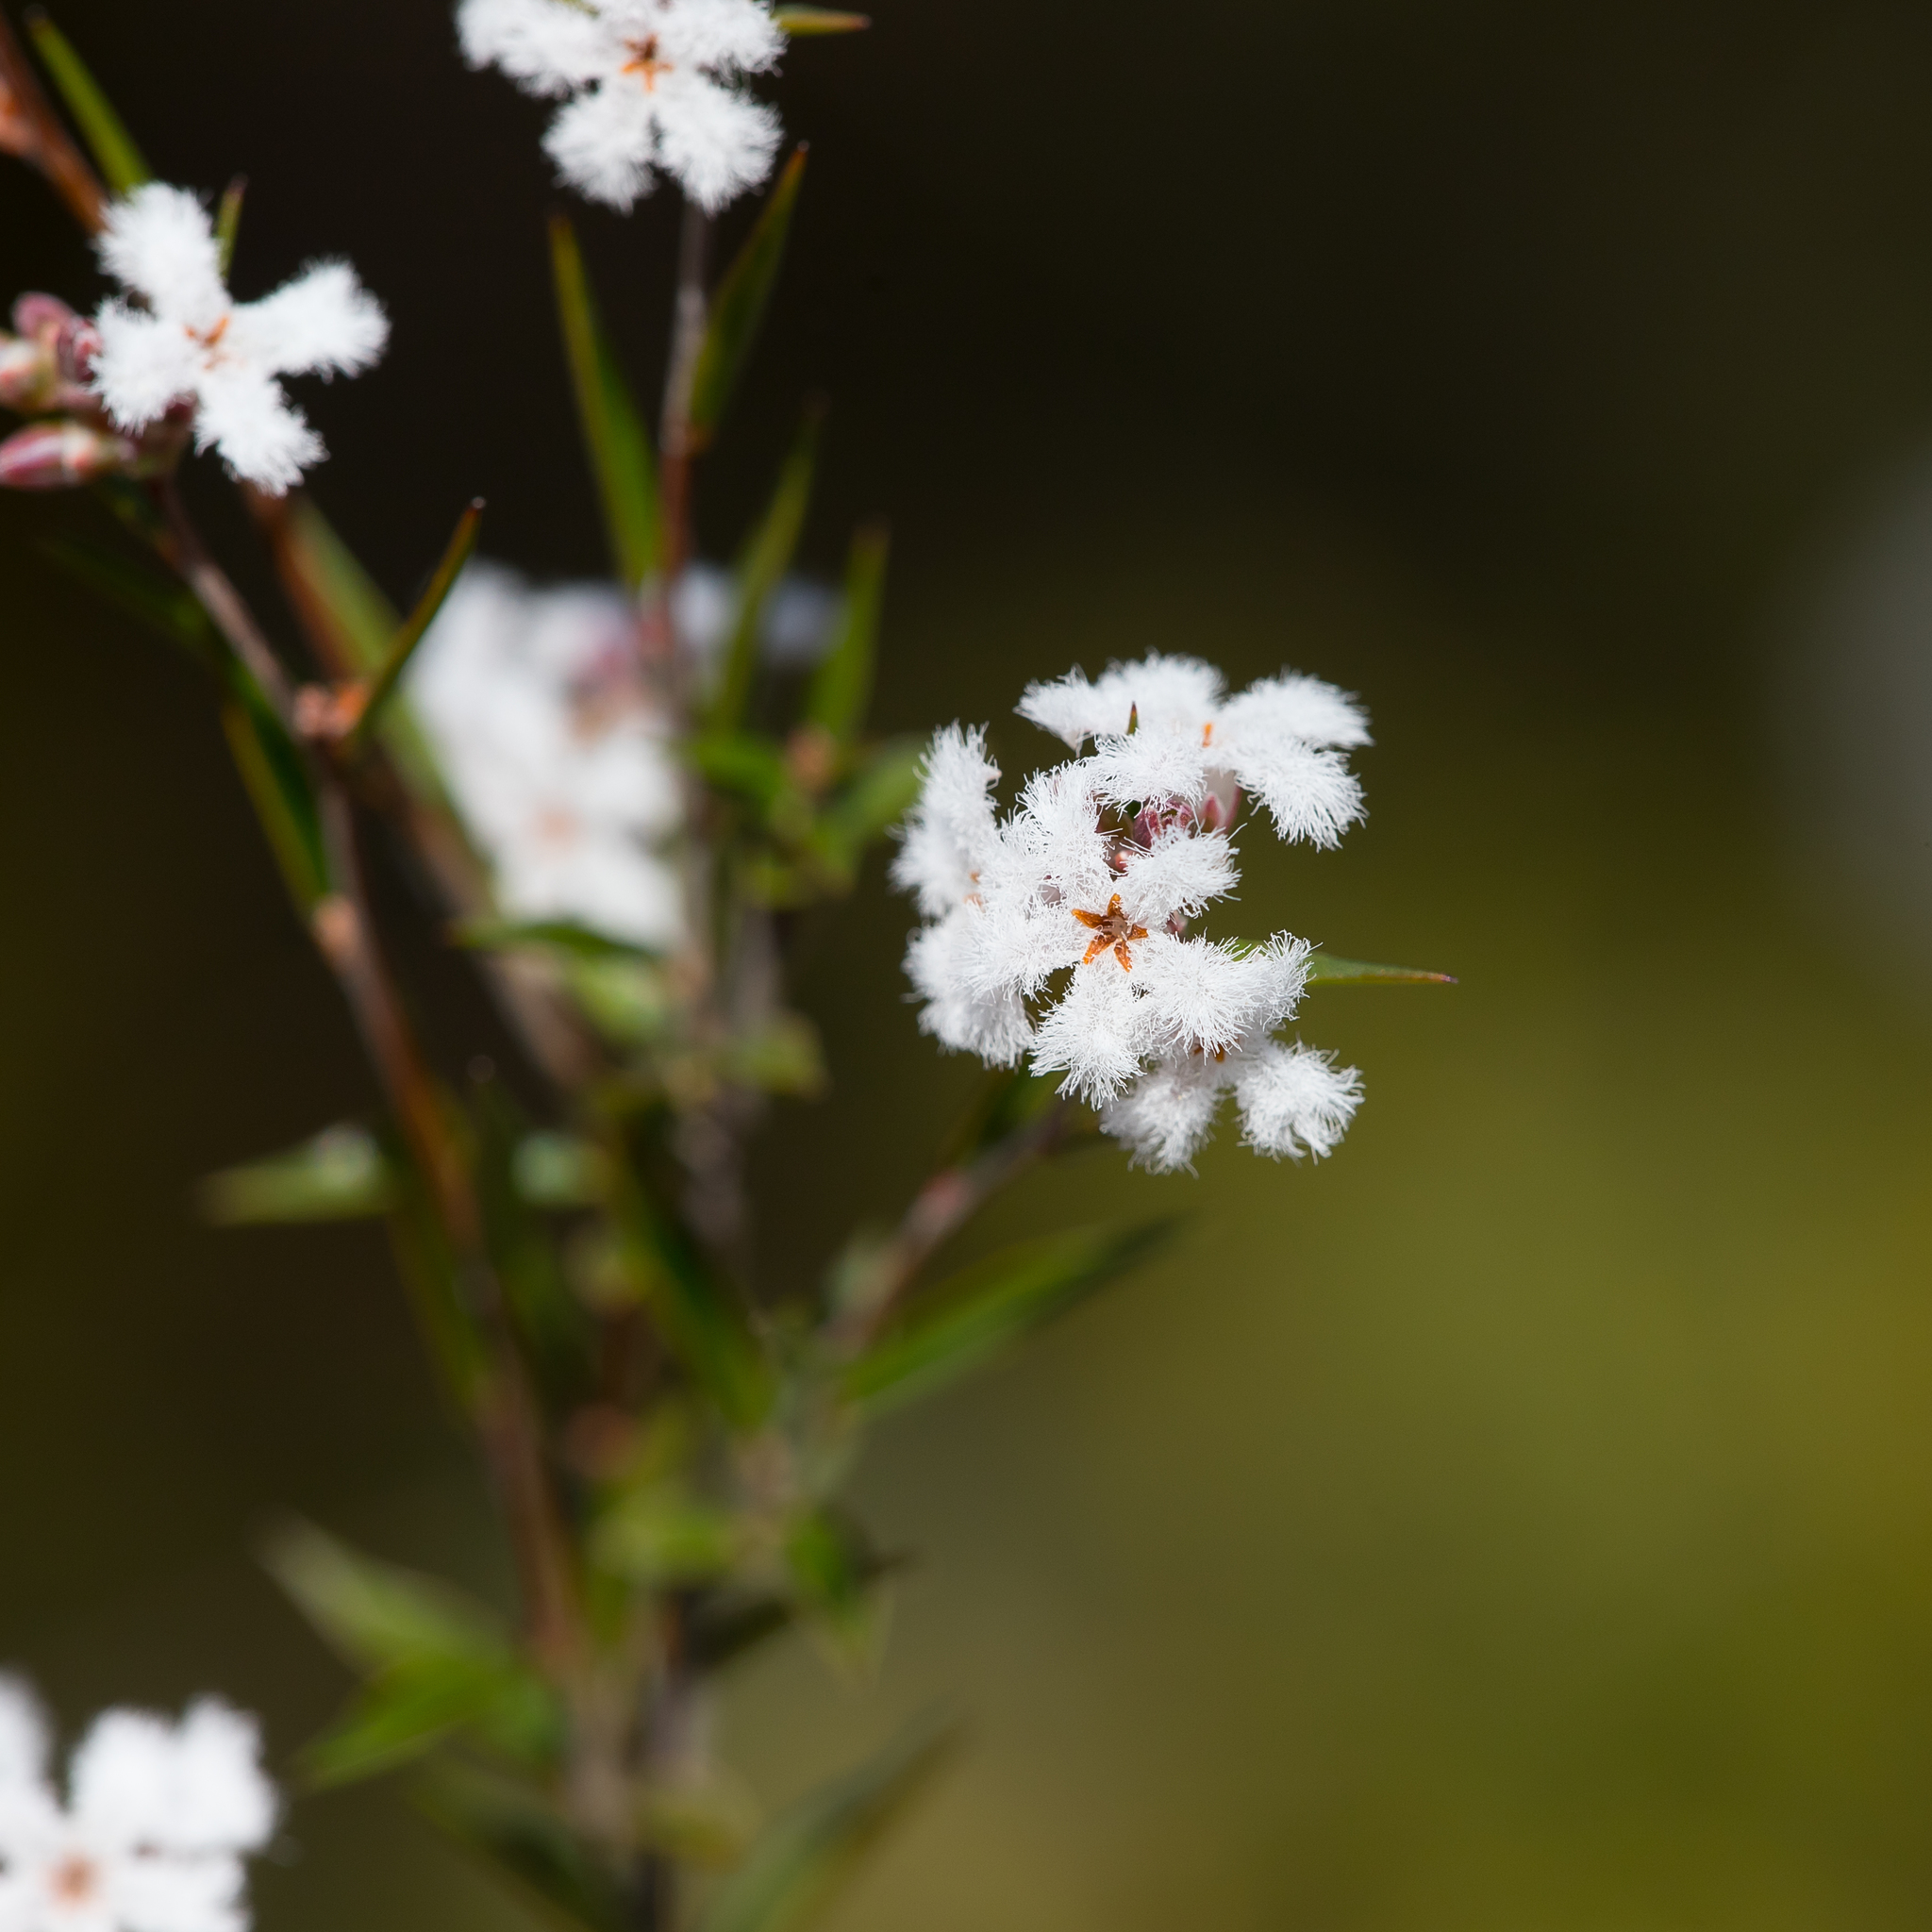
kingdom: Plantae
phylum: Tracheophyta
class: Magnoliopsida
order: Ericales
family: Ericaceae
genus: Leucopogon
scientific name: Leucopogon virgatus
